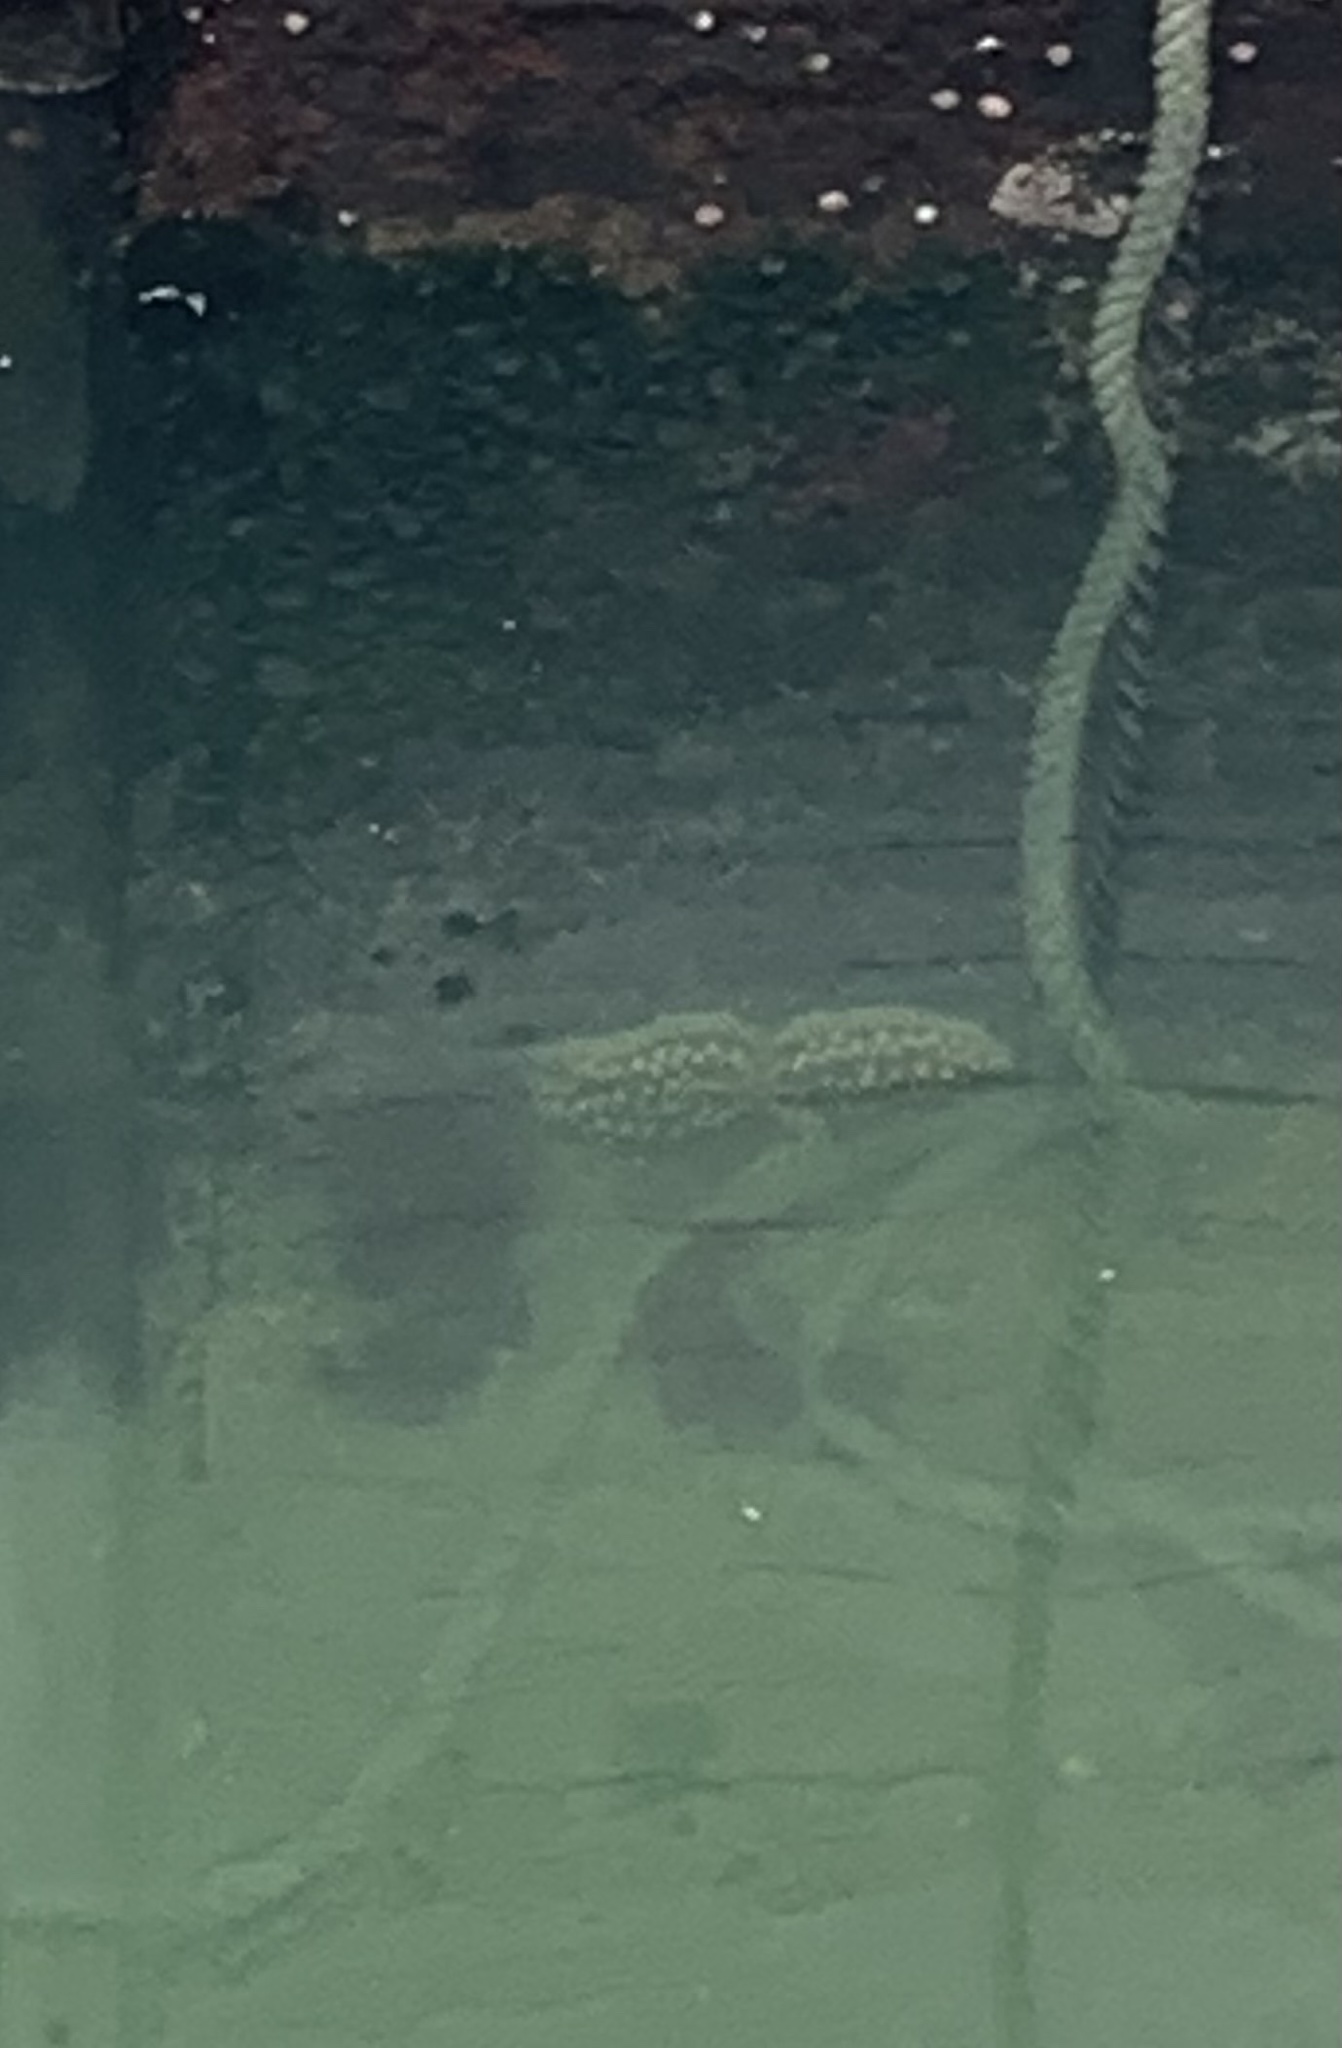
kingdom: Animalia
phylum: Echinodermata
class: Asteroidea
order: Forcipulatida
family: Asteriidae
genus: Meyenaster
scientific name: Meyenaster gelatinosus
